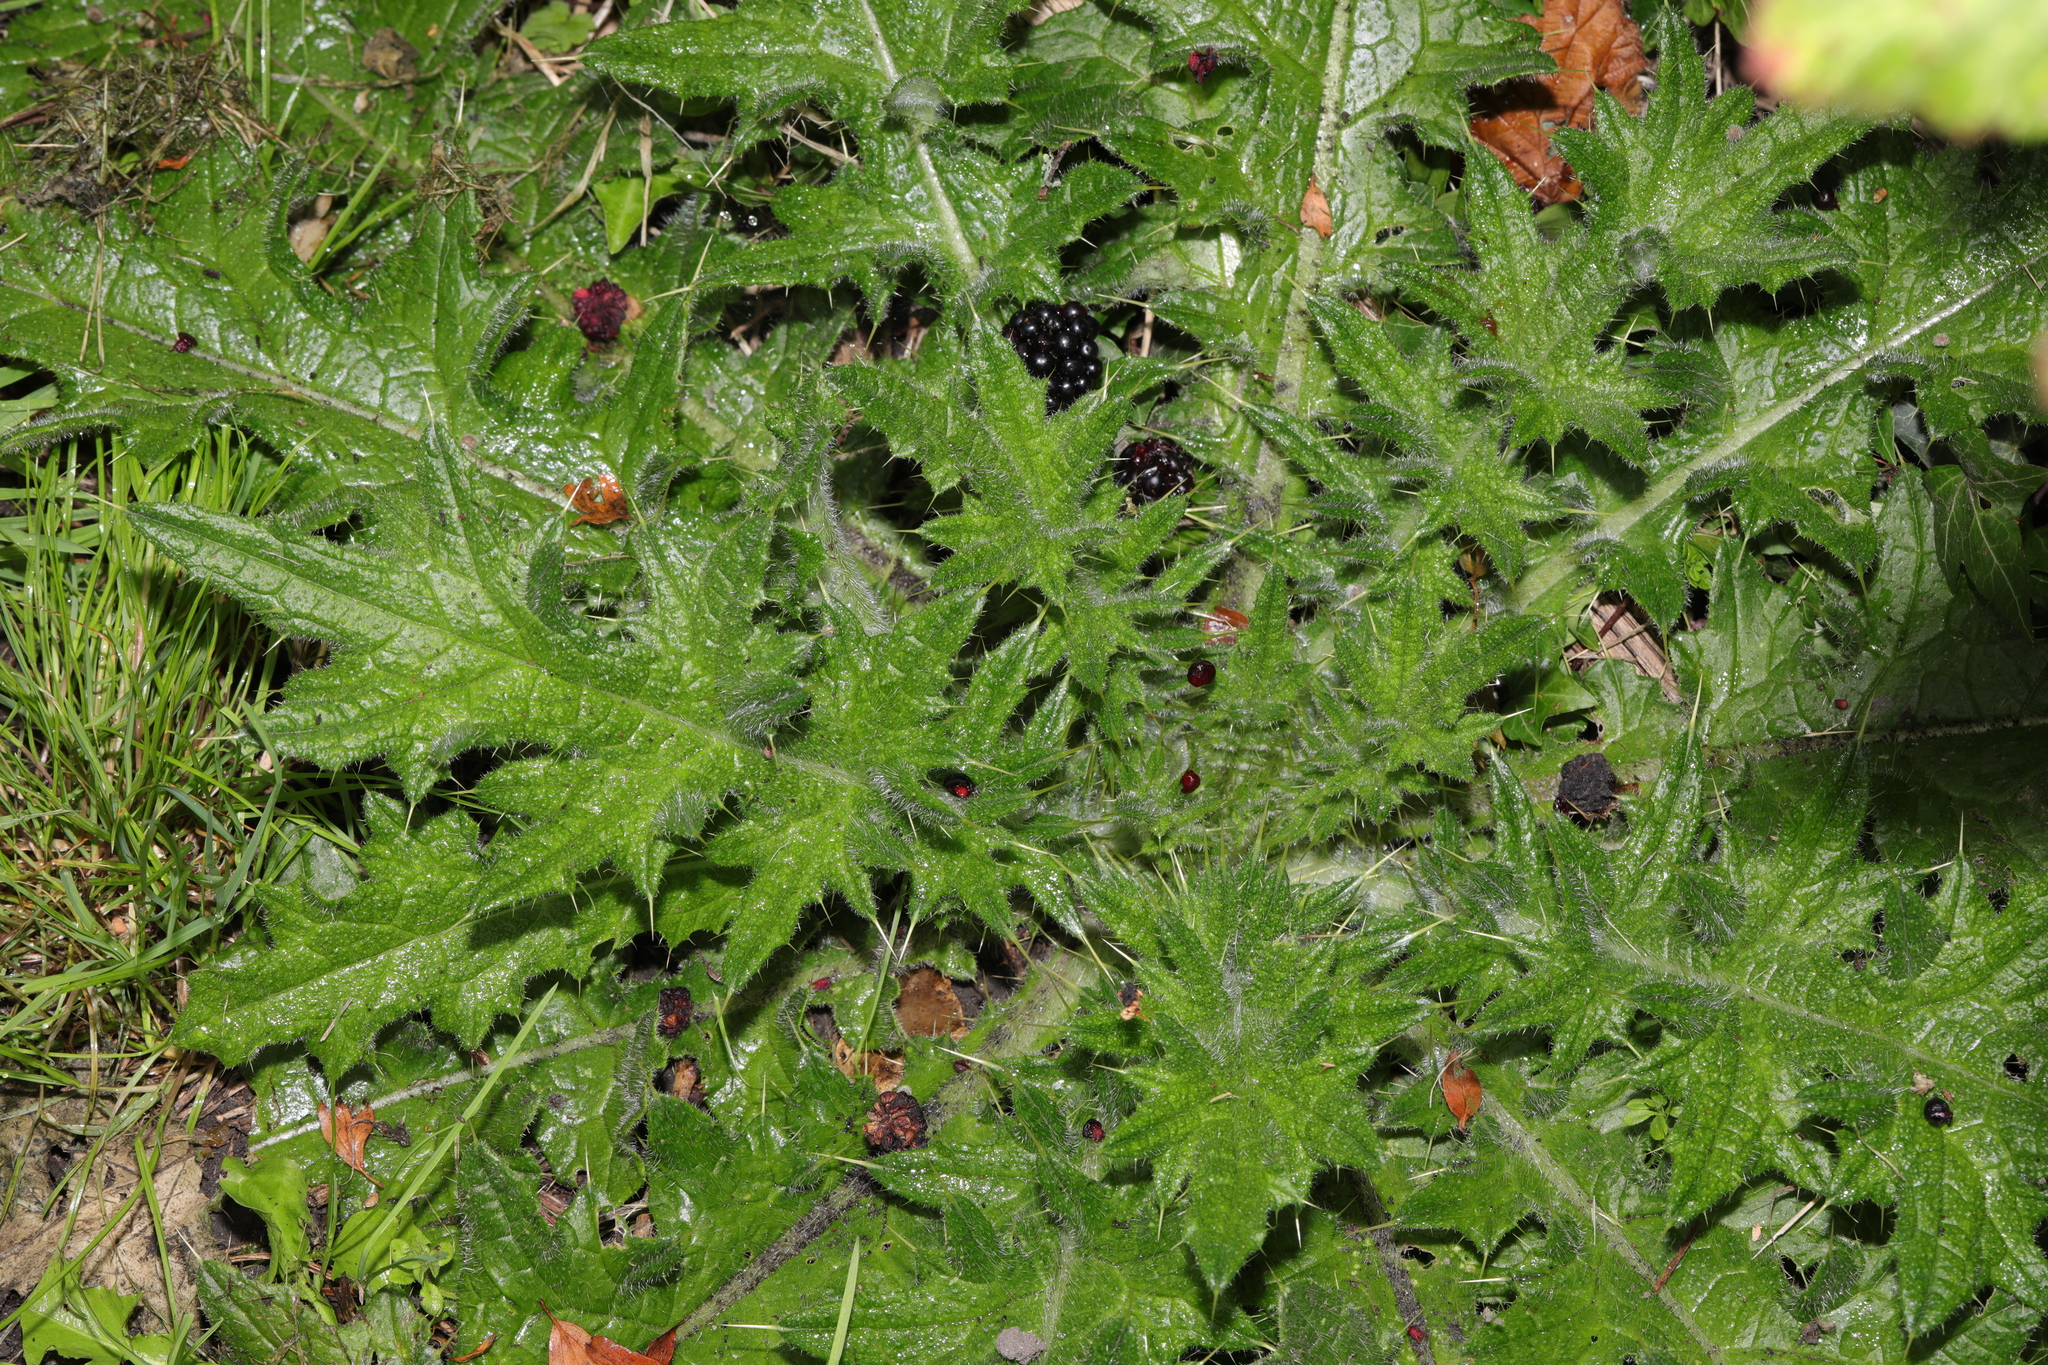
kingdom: Plantae
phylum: Tracheophyta
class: Magnoliopsida
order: Asterales
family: Asteraceae
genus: Cirsium
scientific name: Cirsium vulgare
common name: Bull thistle
